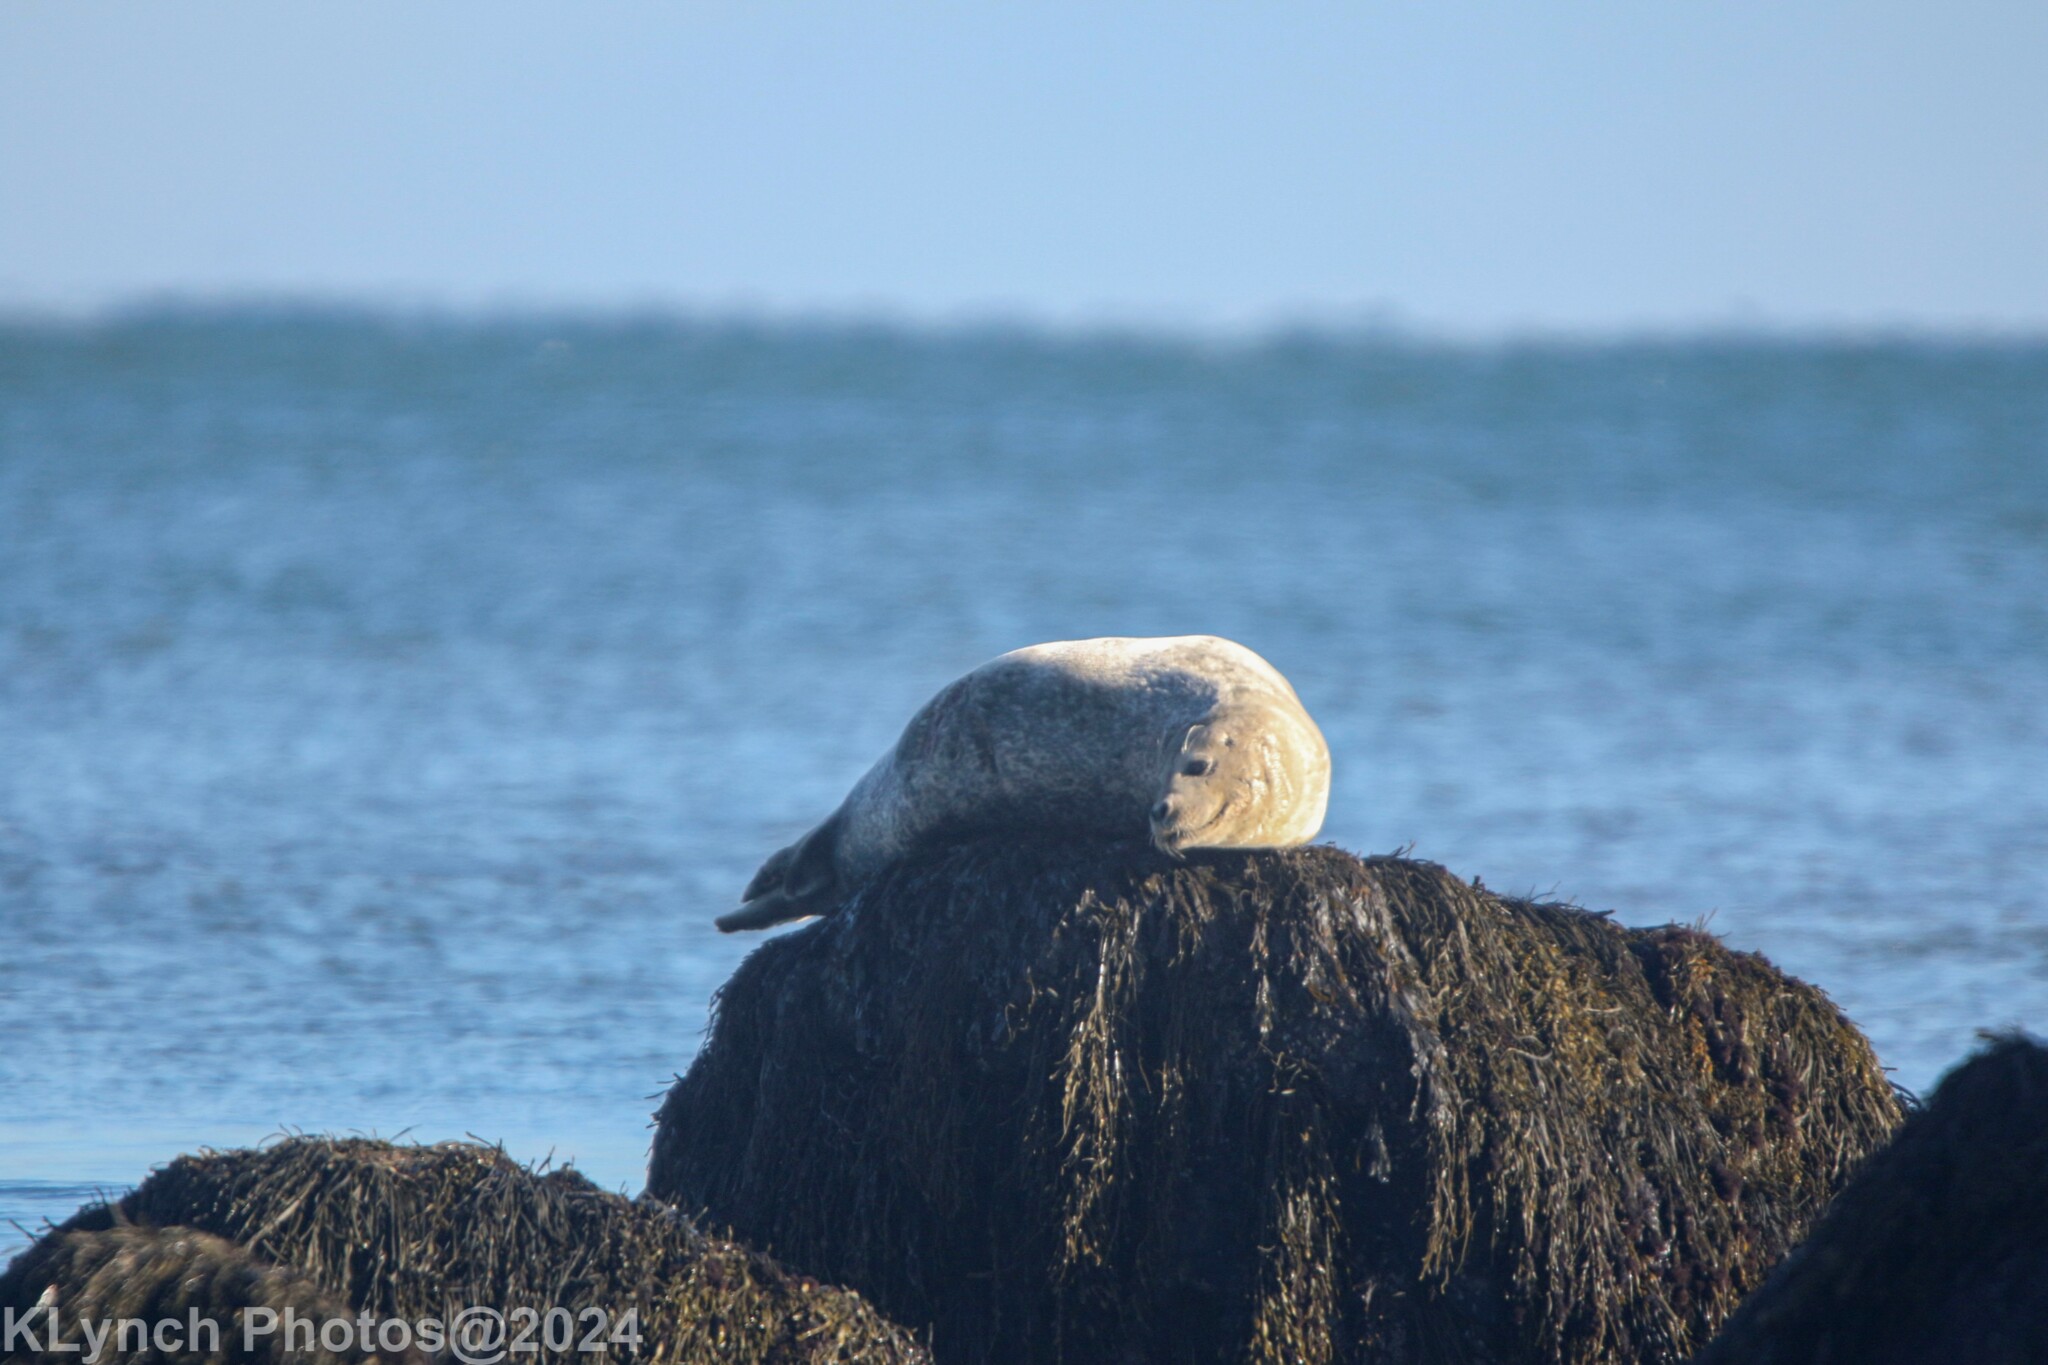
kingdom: Animalia
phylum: Chordata
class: Mammalia
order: Carnivora
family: Phocidae
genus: Phoca
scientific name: Phoca vitulina
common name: Harbor seal
